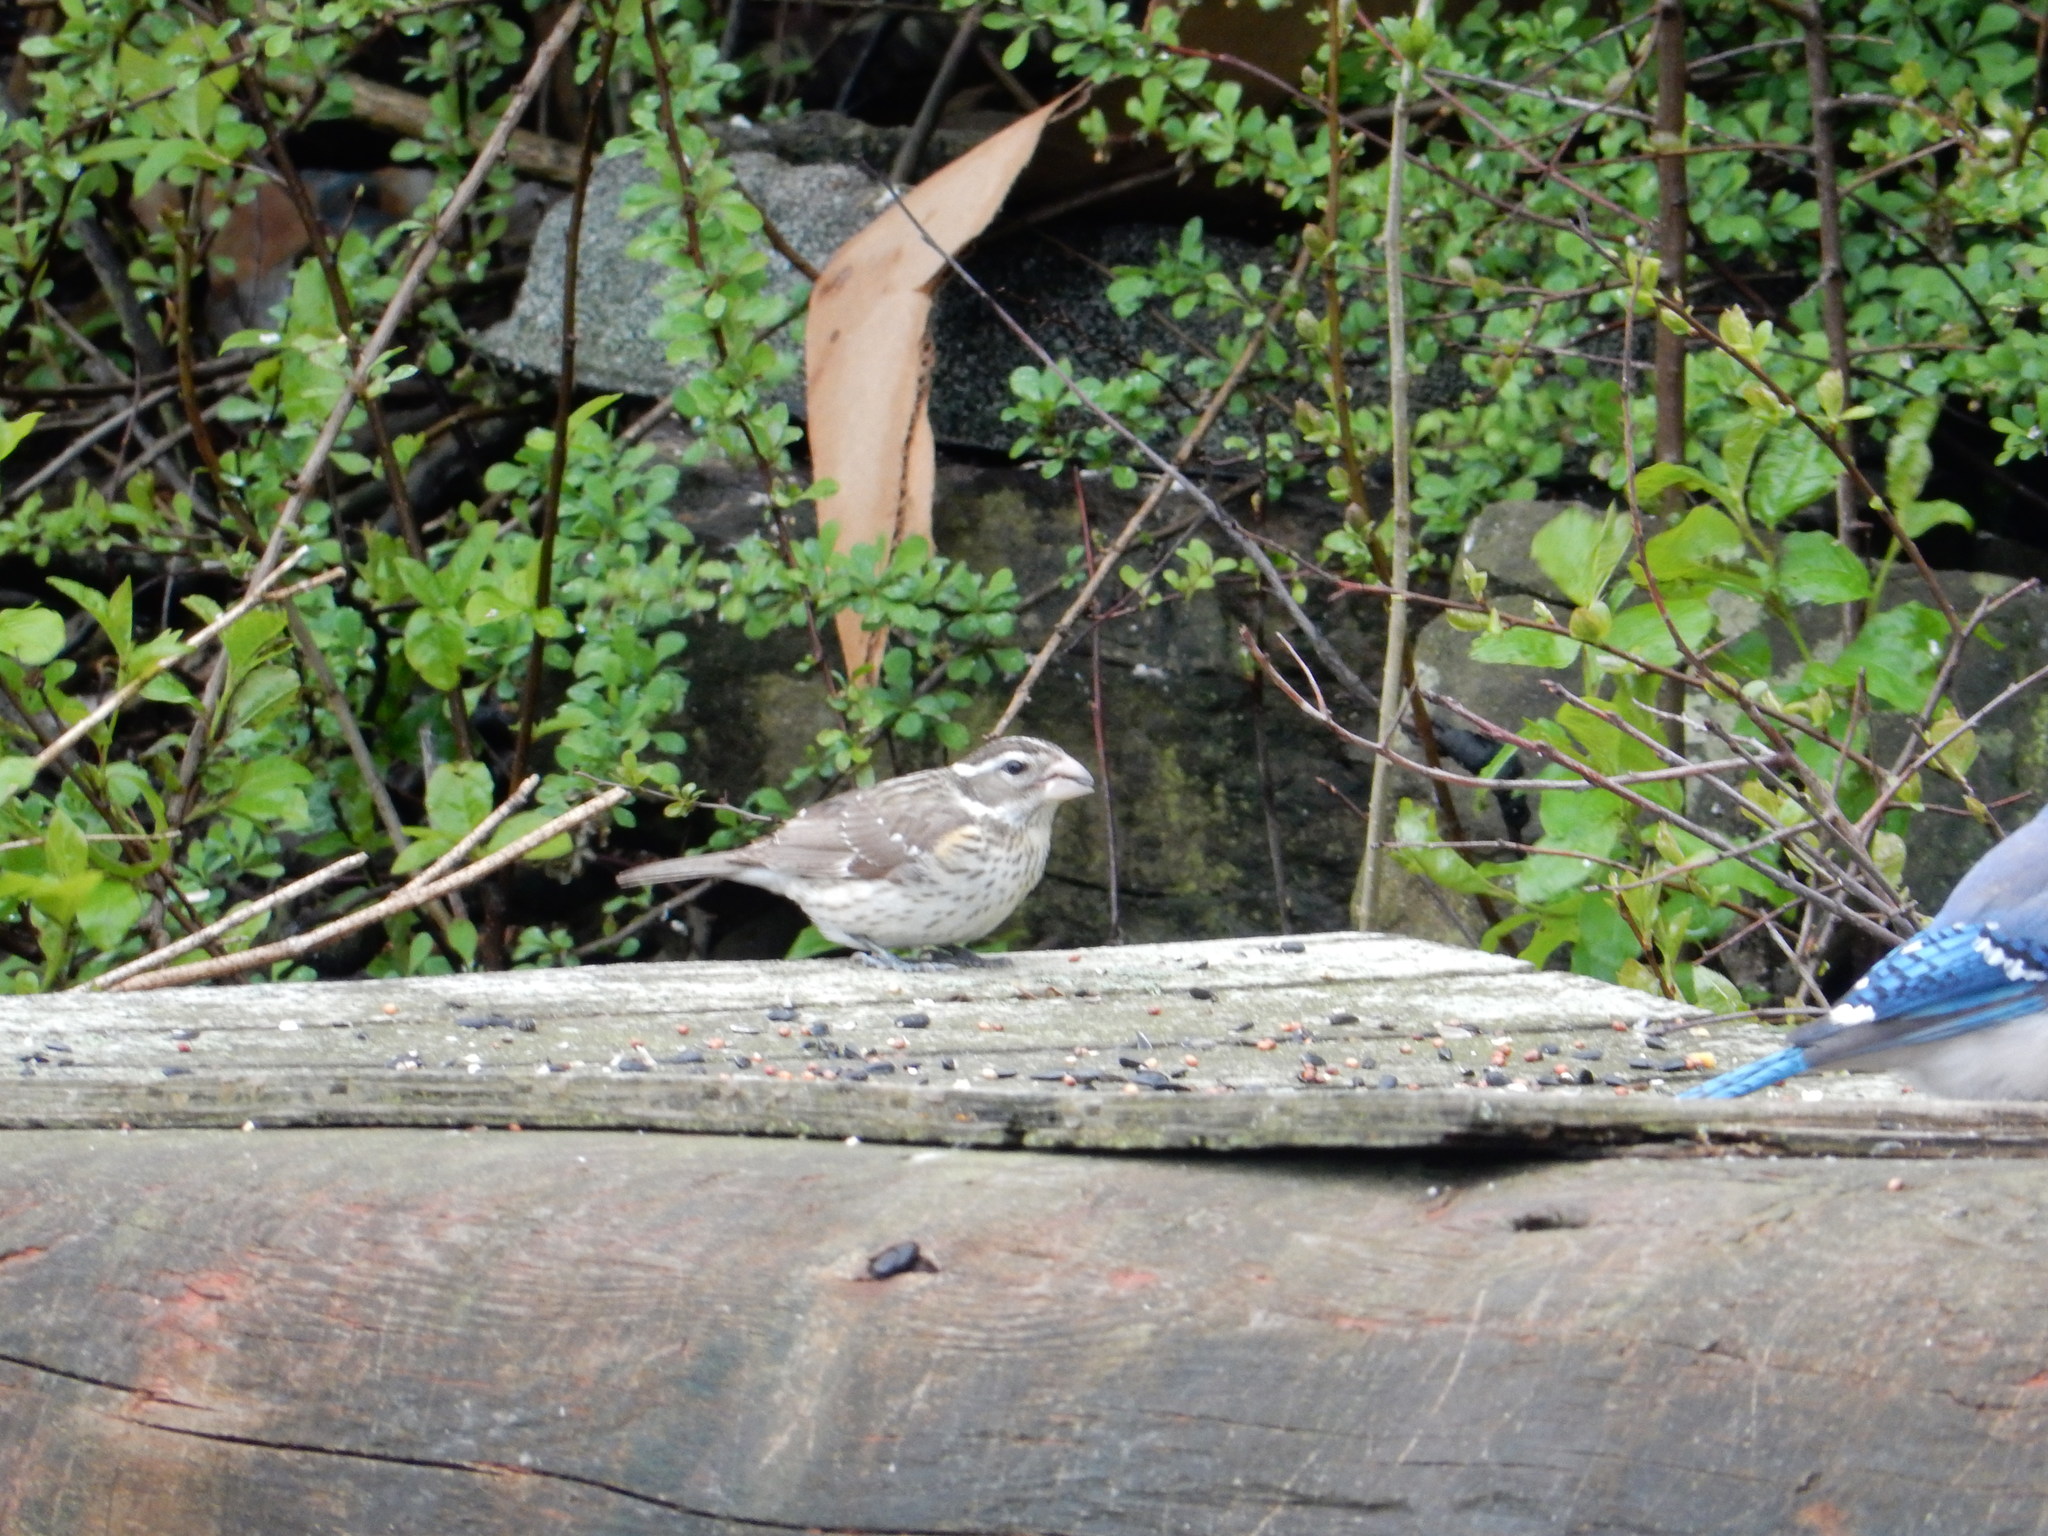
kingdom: Animalia
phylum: Chordata
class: Aves
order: Passeriformes
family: Cardinalidae
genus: Pheucticus
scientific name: Pheucticus ludovicianus
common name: Rose-breasted grosbeak
